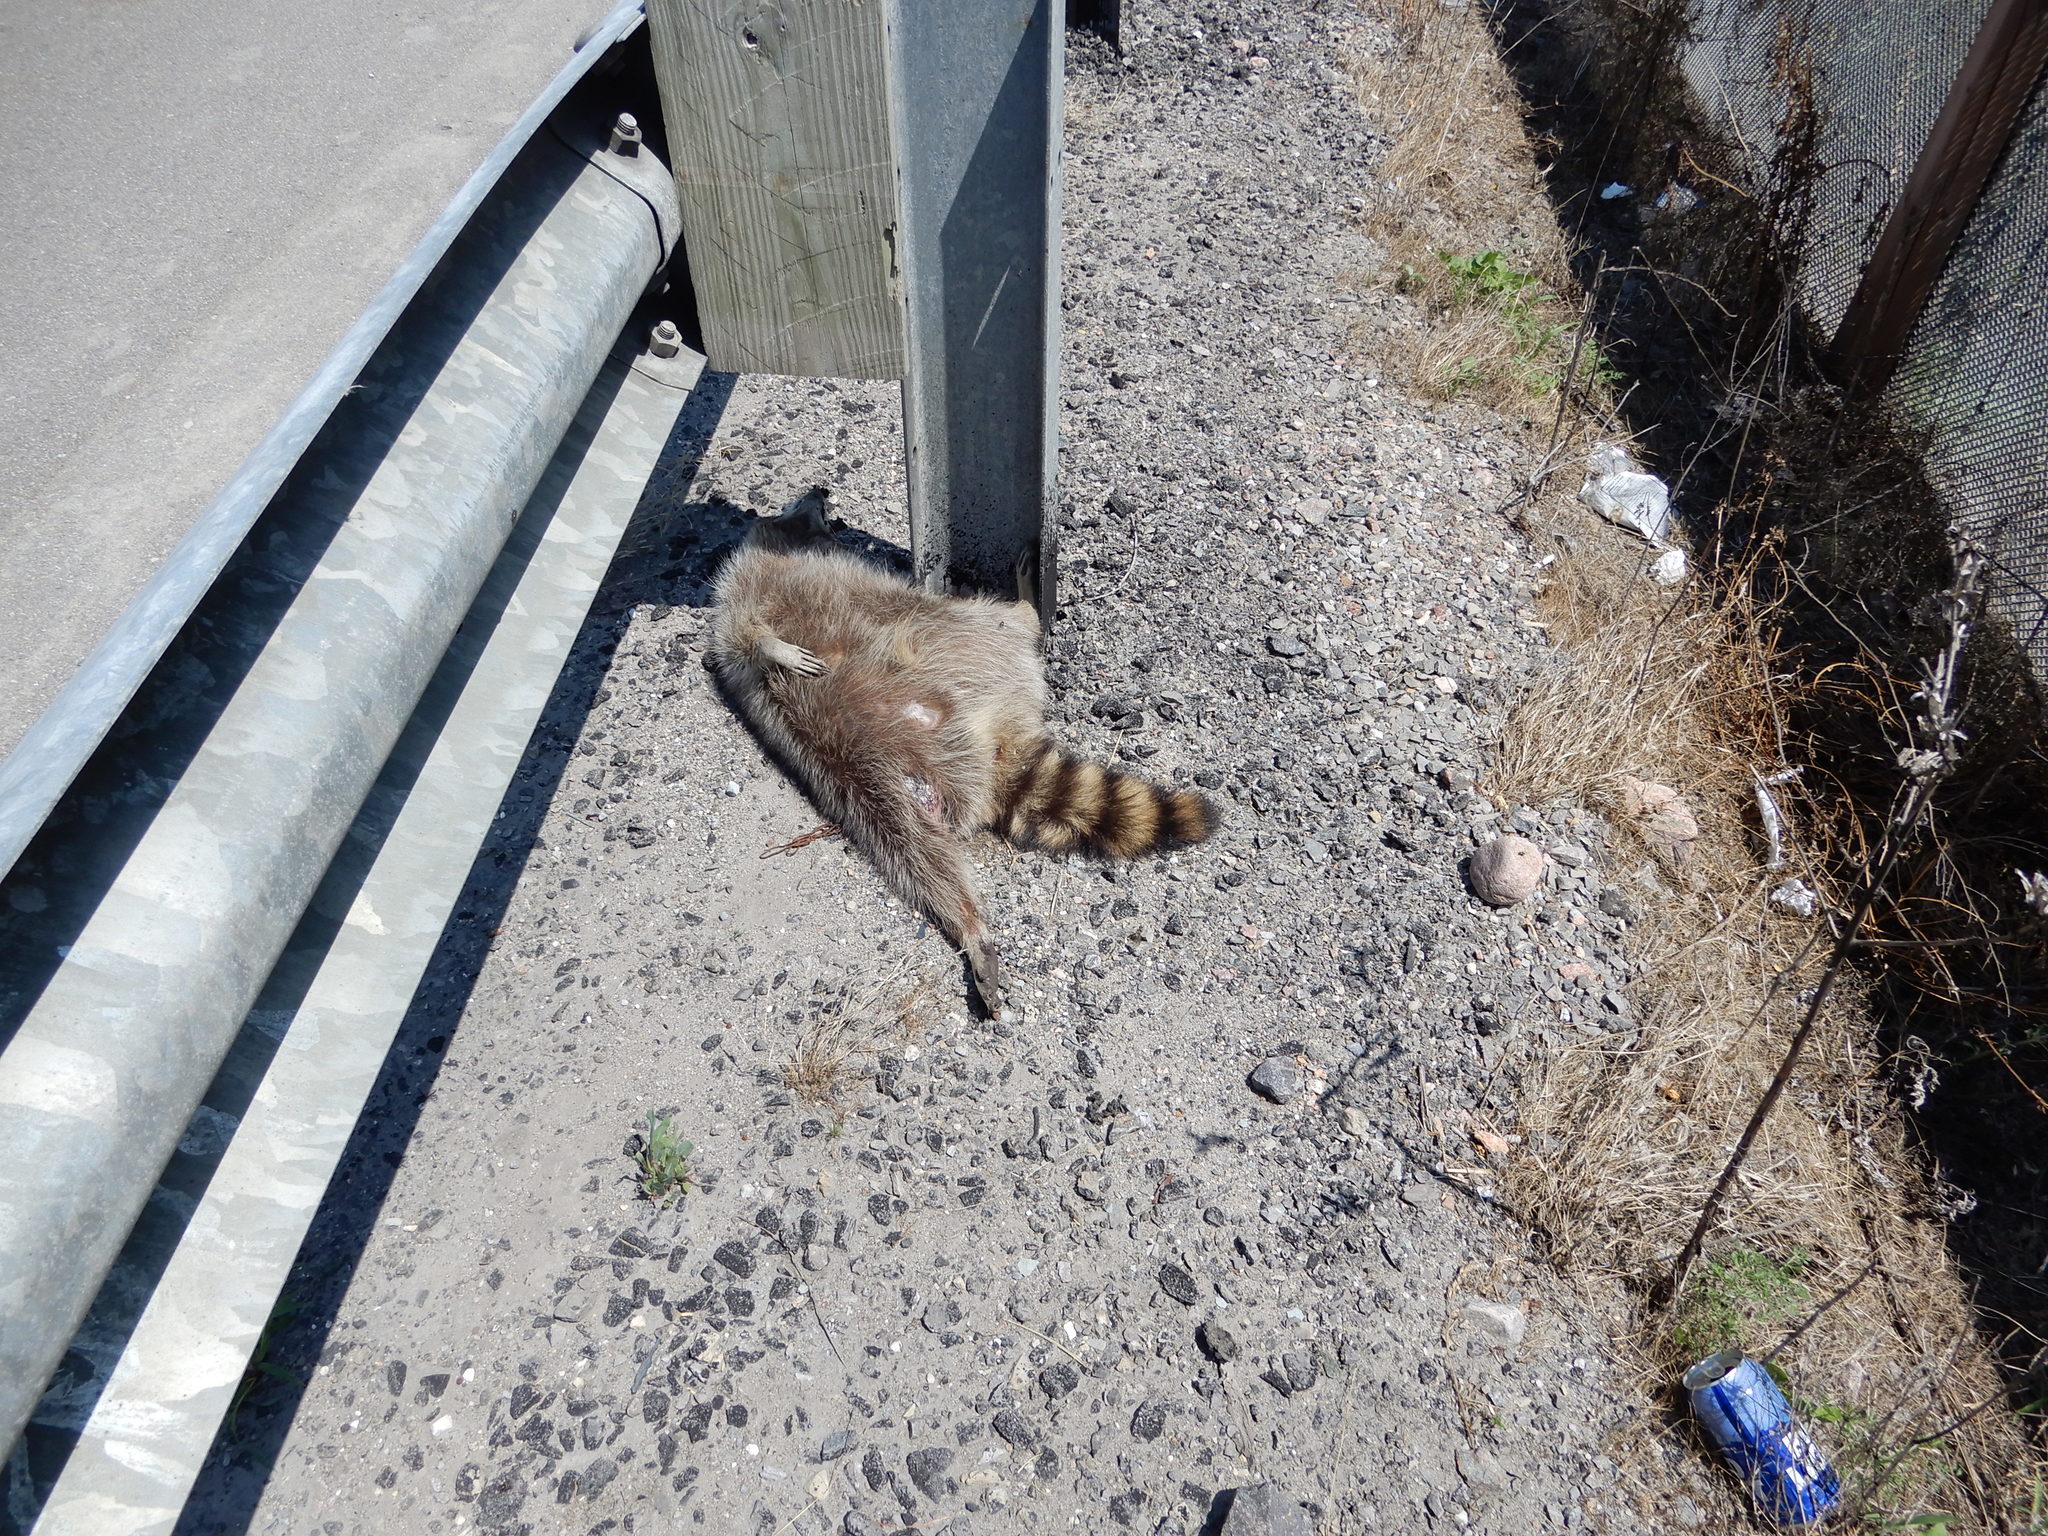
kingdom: Animalia
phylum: Chordata
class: Mammalia
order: Carnivora
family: Procyonidae
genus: Procyon
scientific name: Procyon lotor
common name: Raccoon
